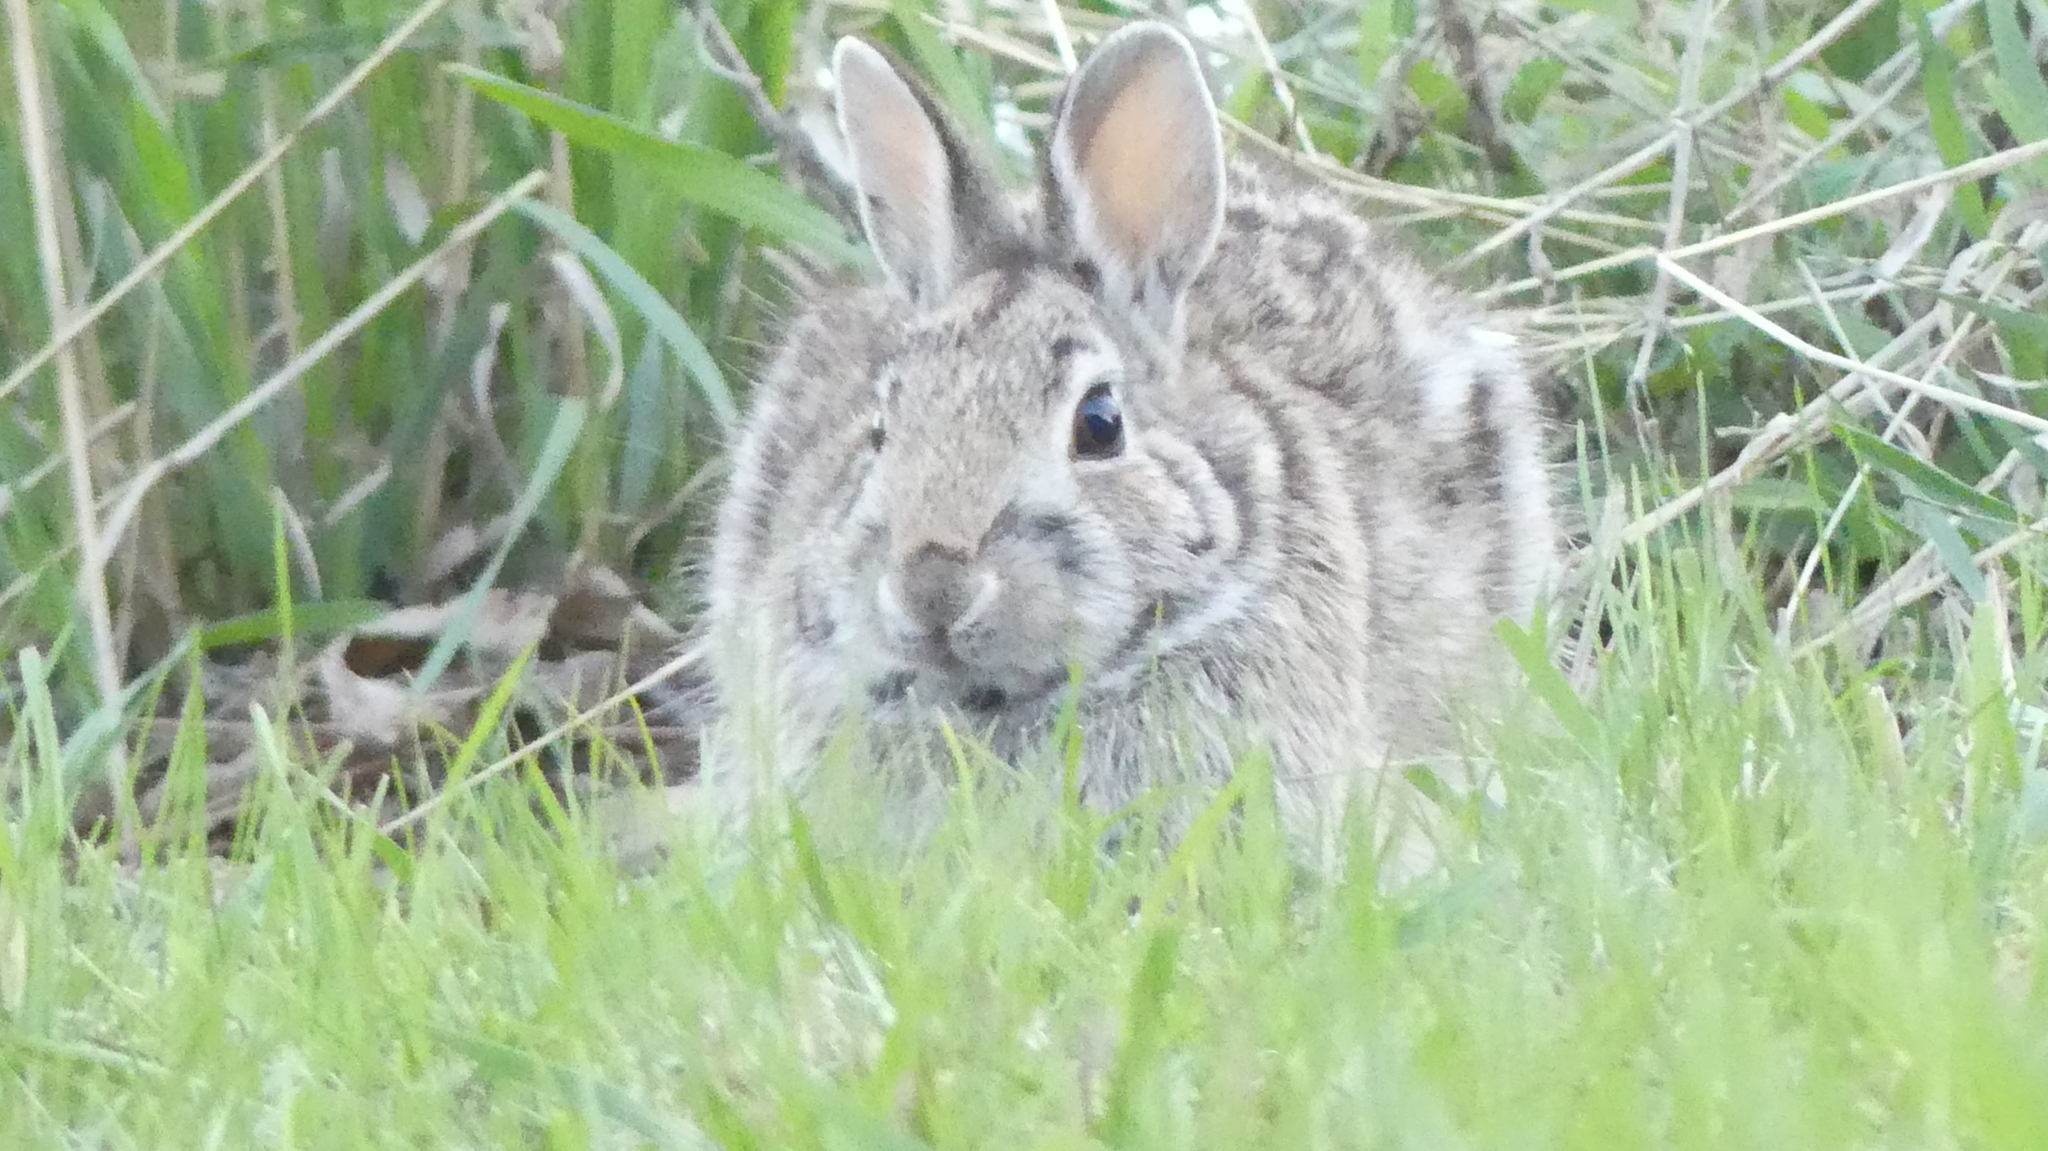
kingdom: Animalia
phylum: Chordata
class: Mammalia
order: Lagomorpha
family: Leporidae
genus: Sylvilagus
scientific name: Sylvilagus floridanus
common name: Eastern cottontail
